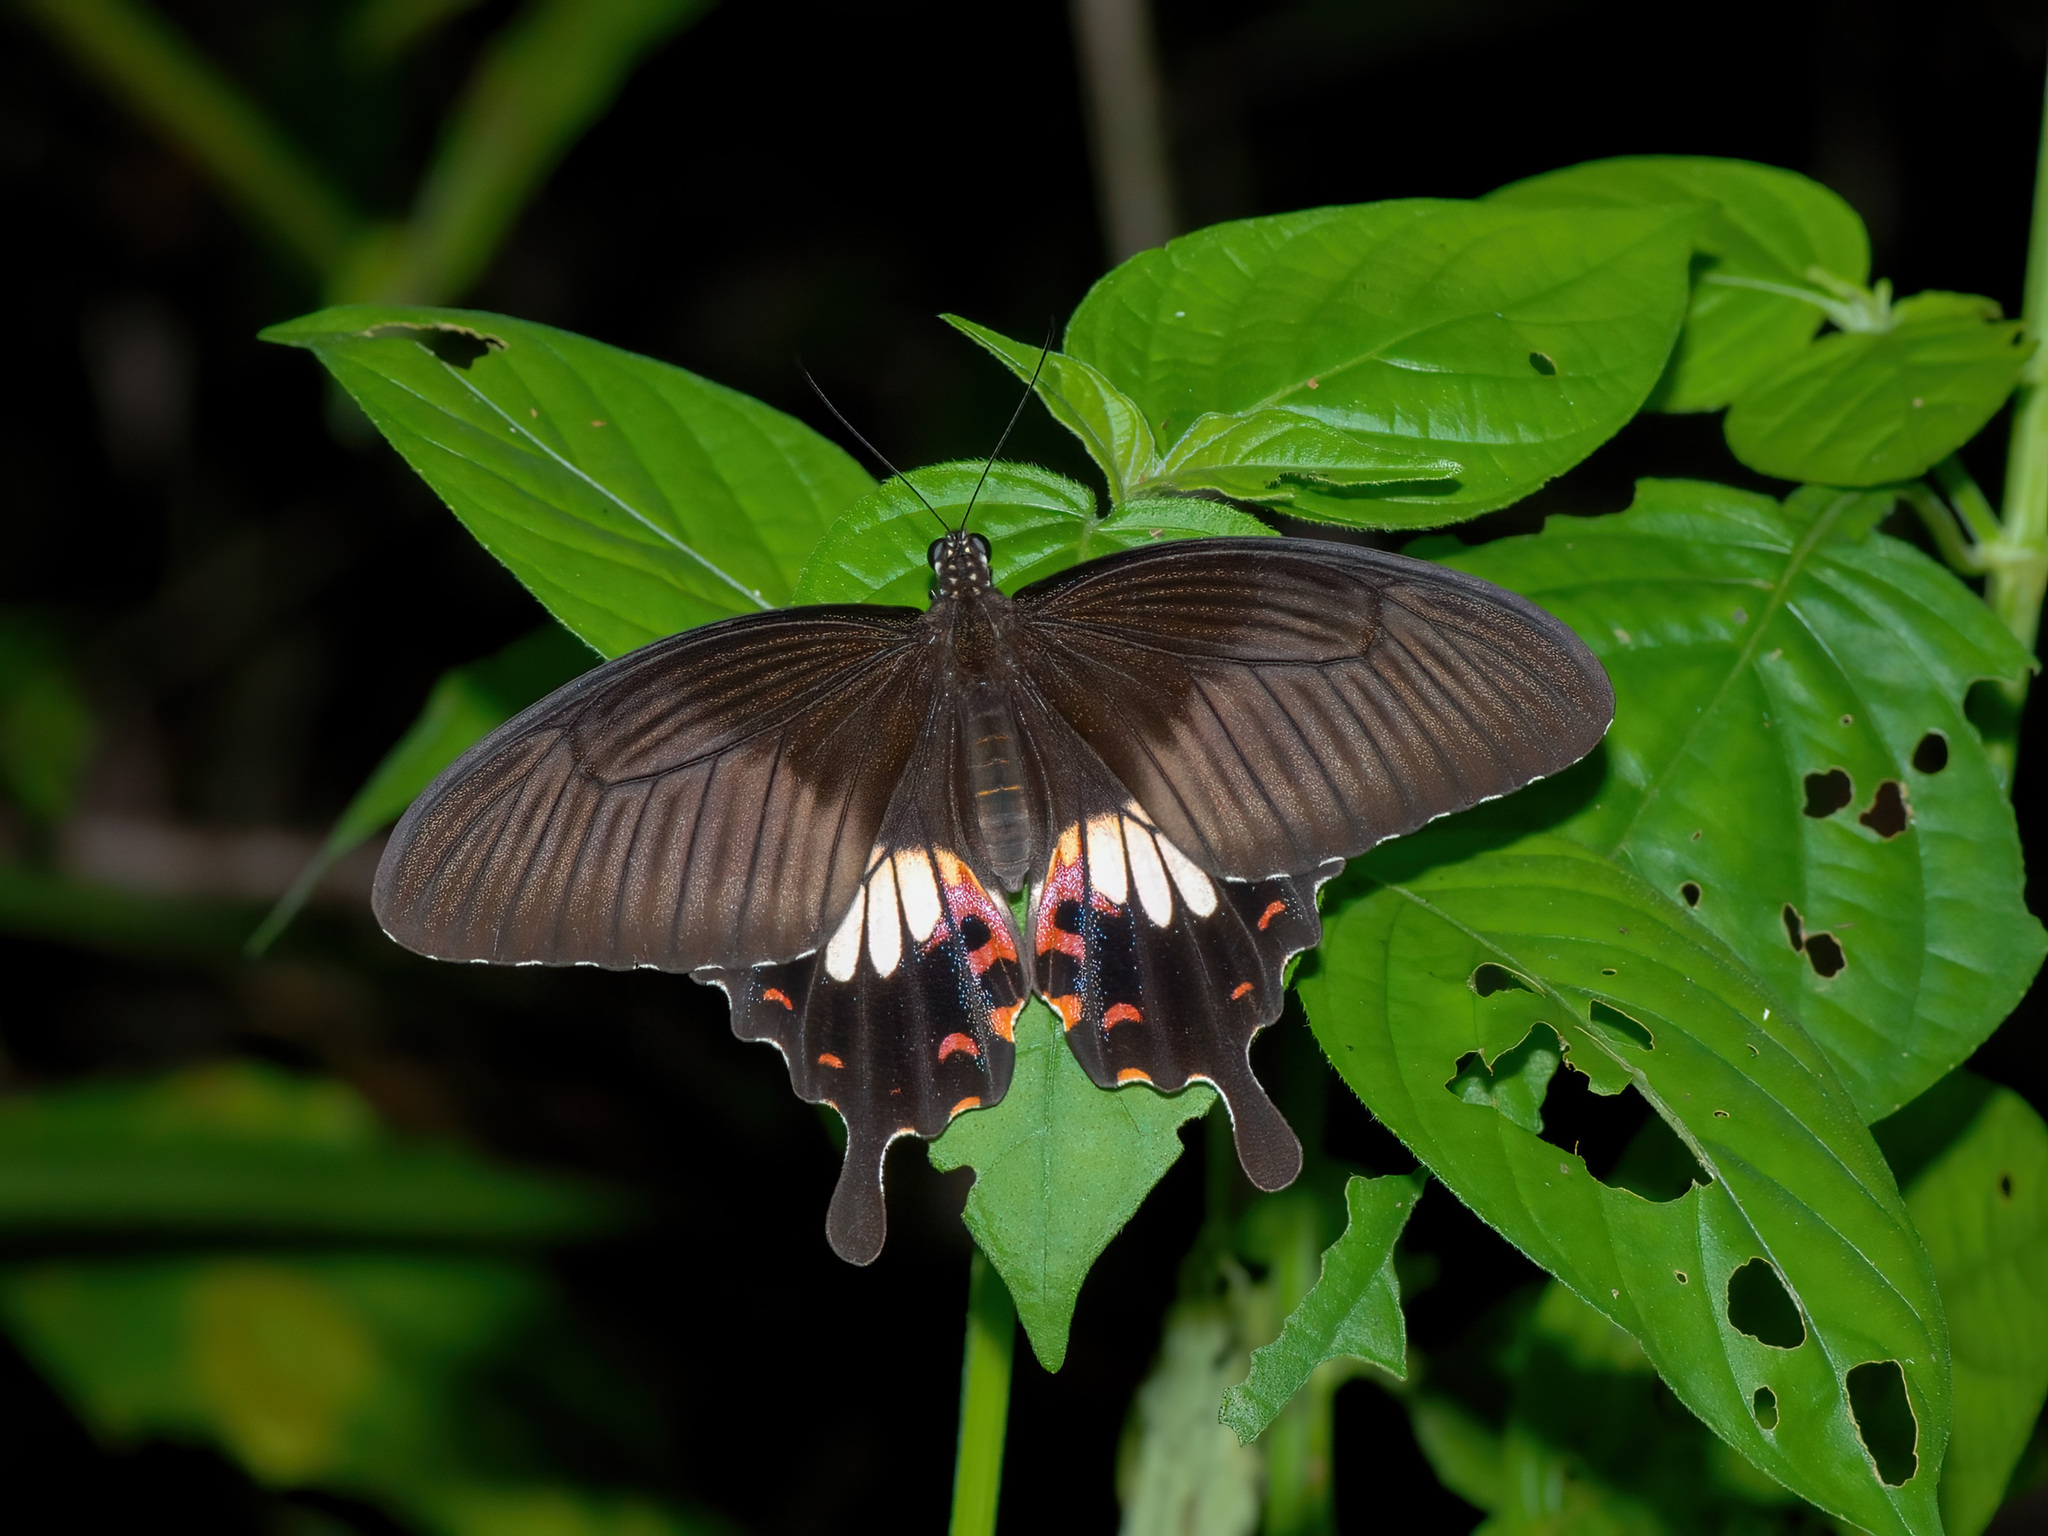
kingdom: Animalia
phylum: Arthropoda
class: Insecta
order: Lepidoptera
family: Papilionidae
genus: Papilio
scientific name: Papilio polytes
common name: Common mormon
